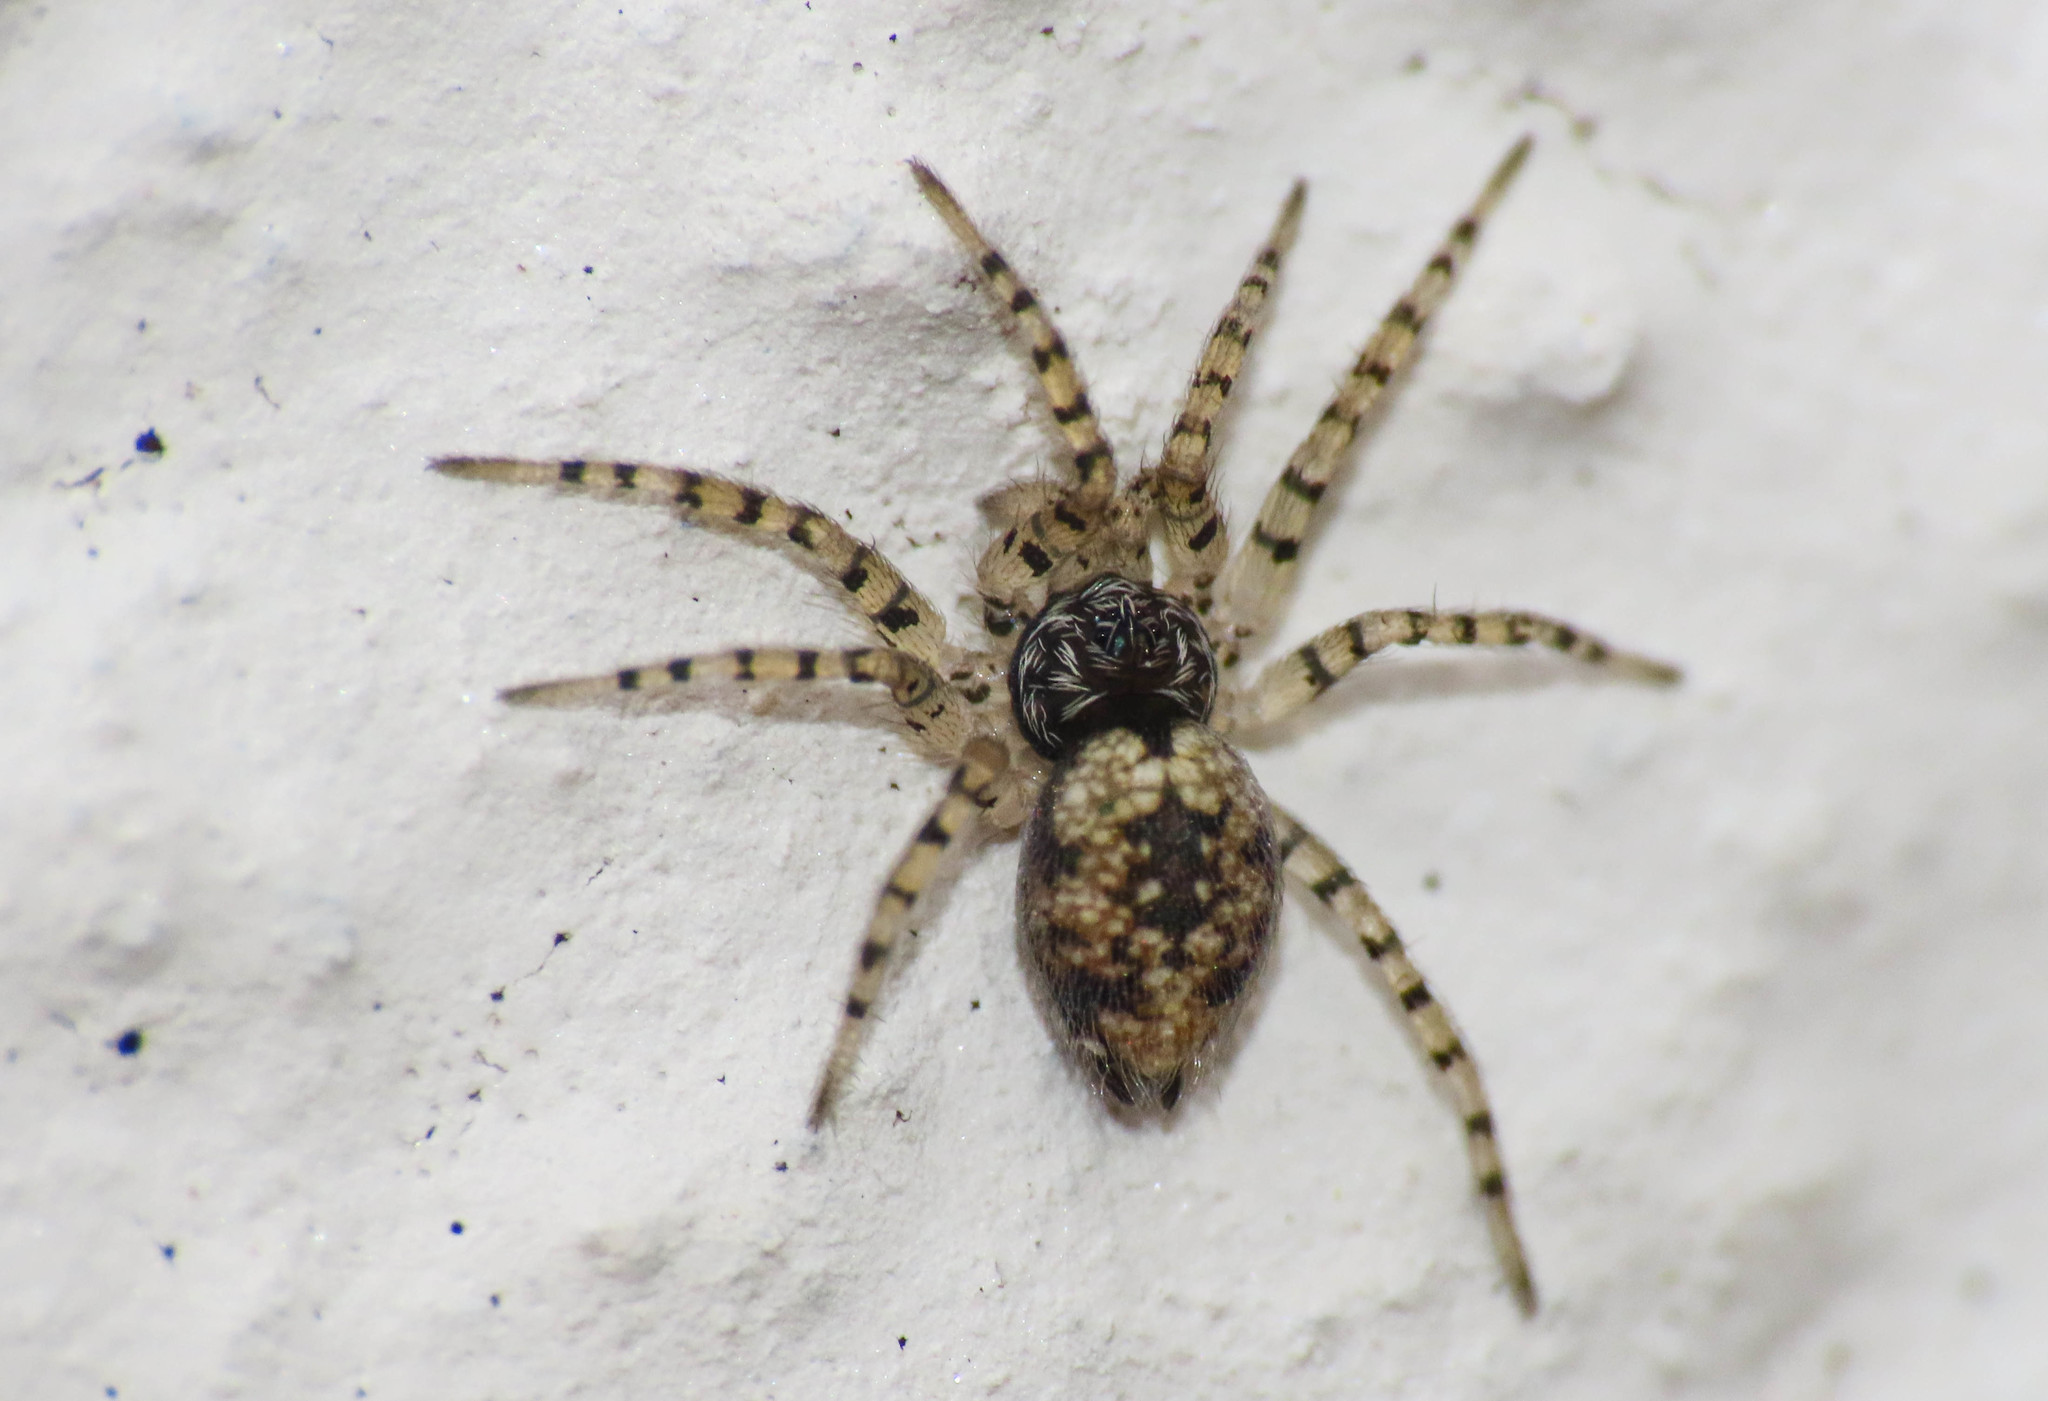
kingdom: Animalia
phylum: Arthropoda
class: Arachnida
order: Araneae
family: Oecobiidae
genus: Oecobius
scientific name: Oecobius maculatus
